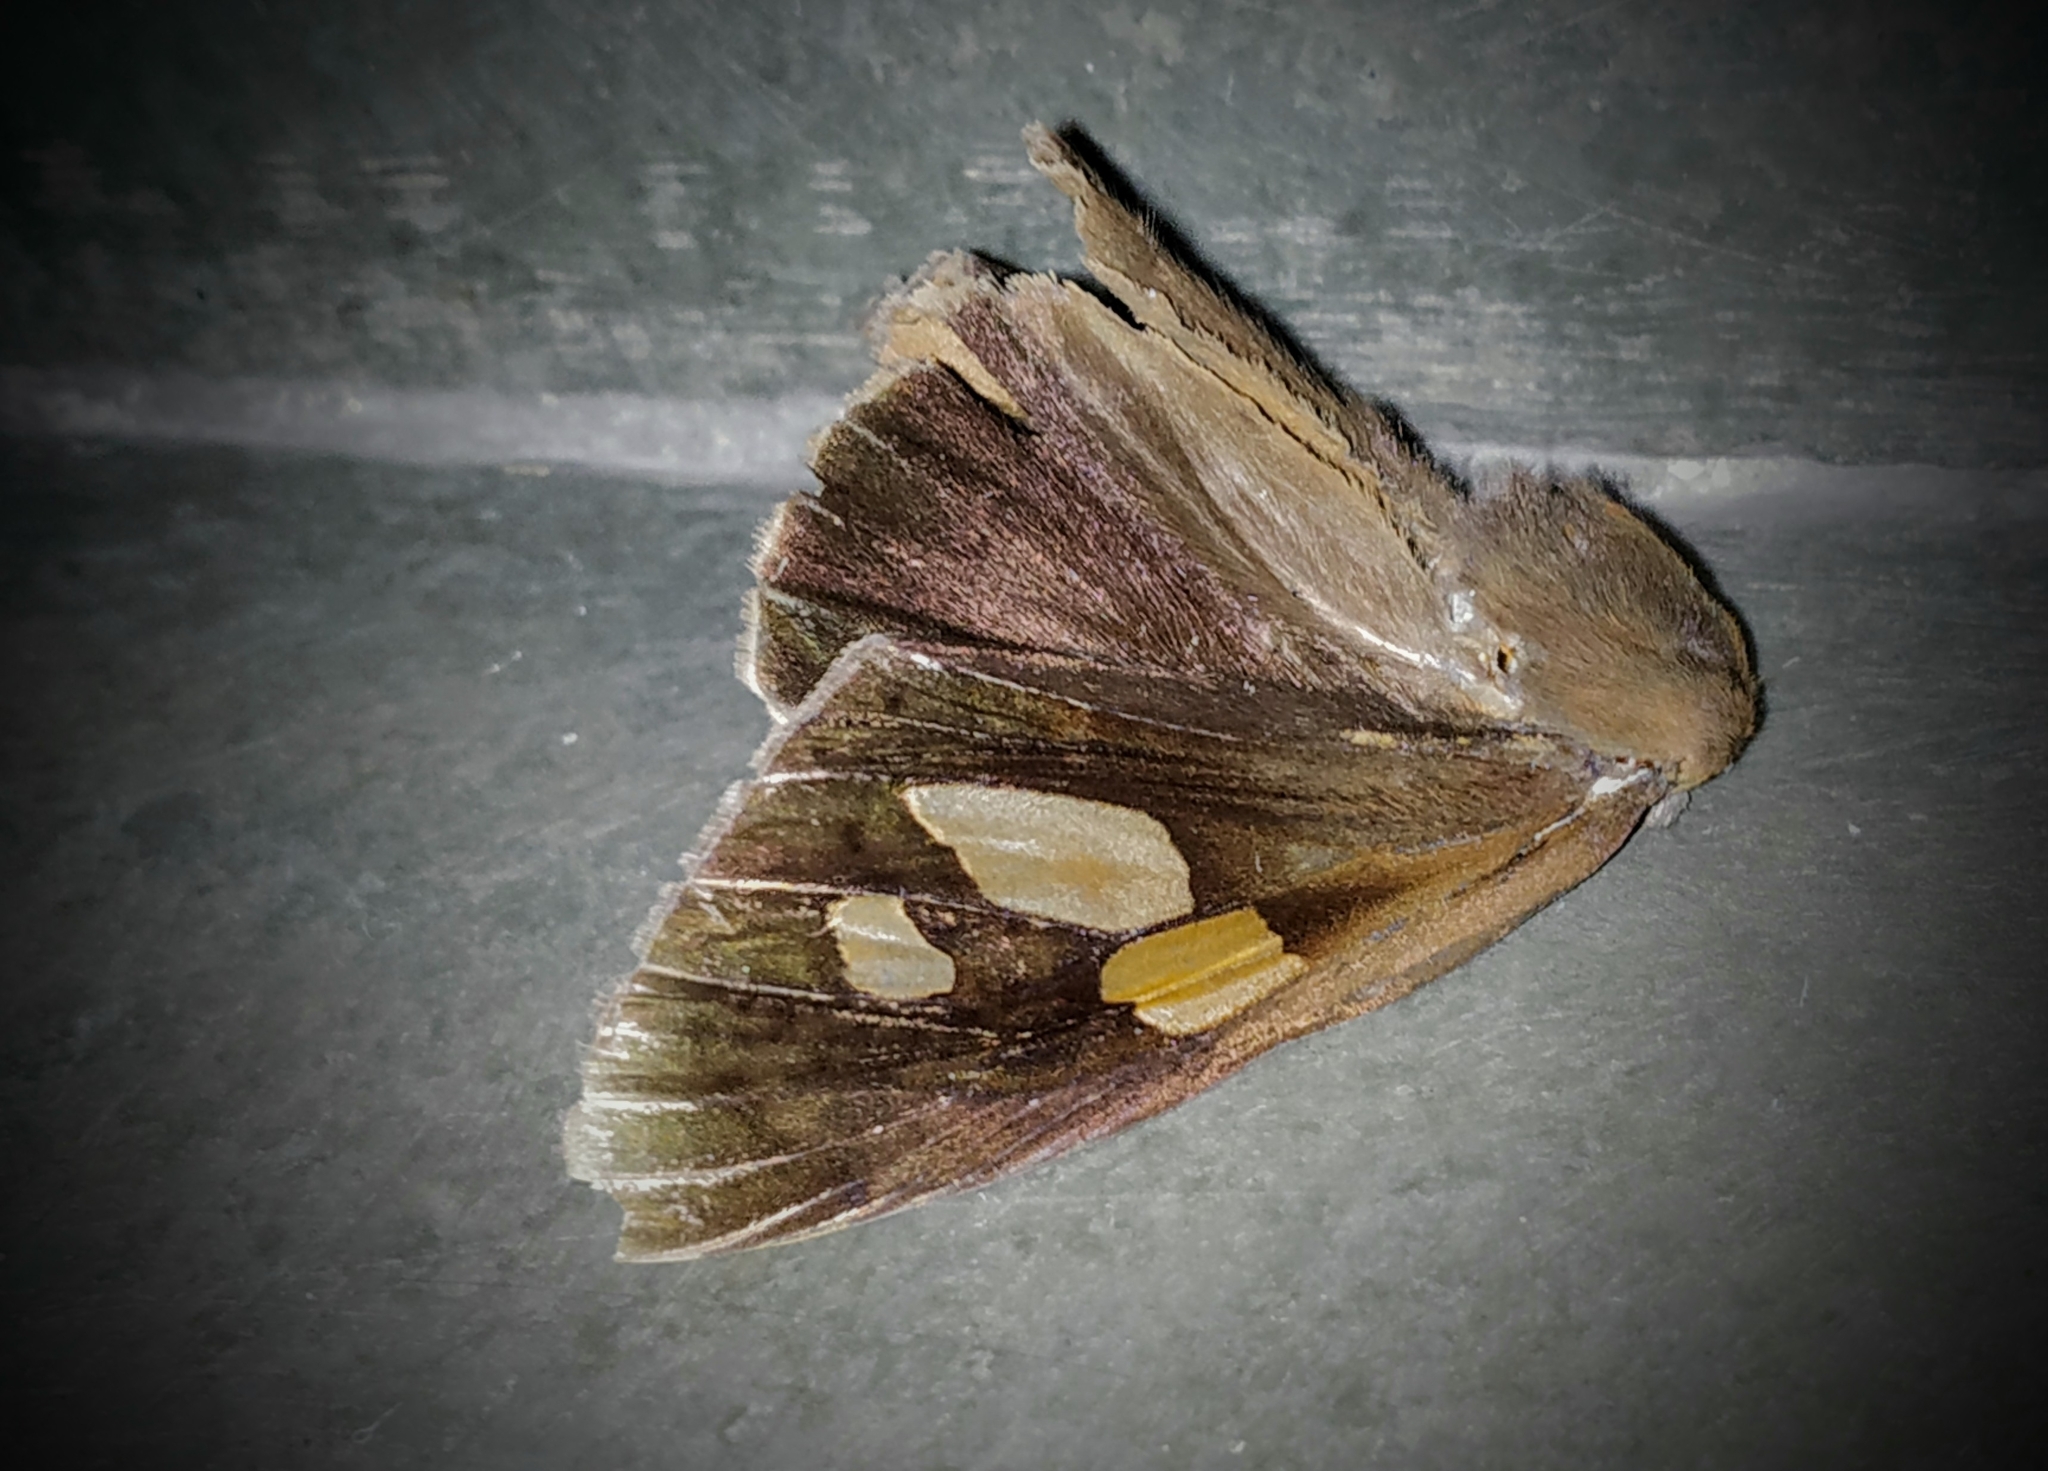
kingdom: Animalia
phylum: Arthropoda
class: Insecta
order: Lepidoptera
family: Hesperiidae
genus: Gangara
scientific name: Gangara thyrsis
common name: Giant redeye
